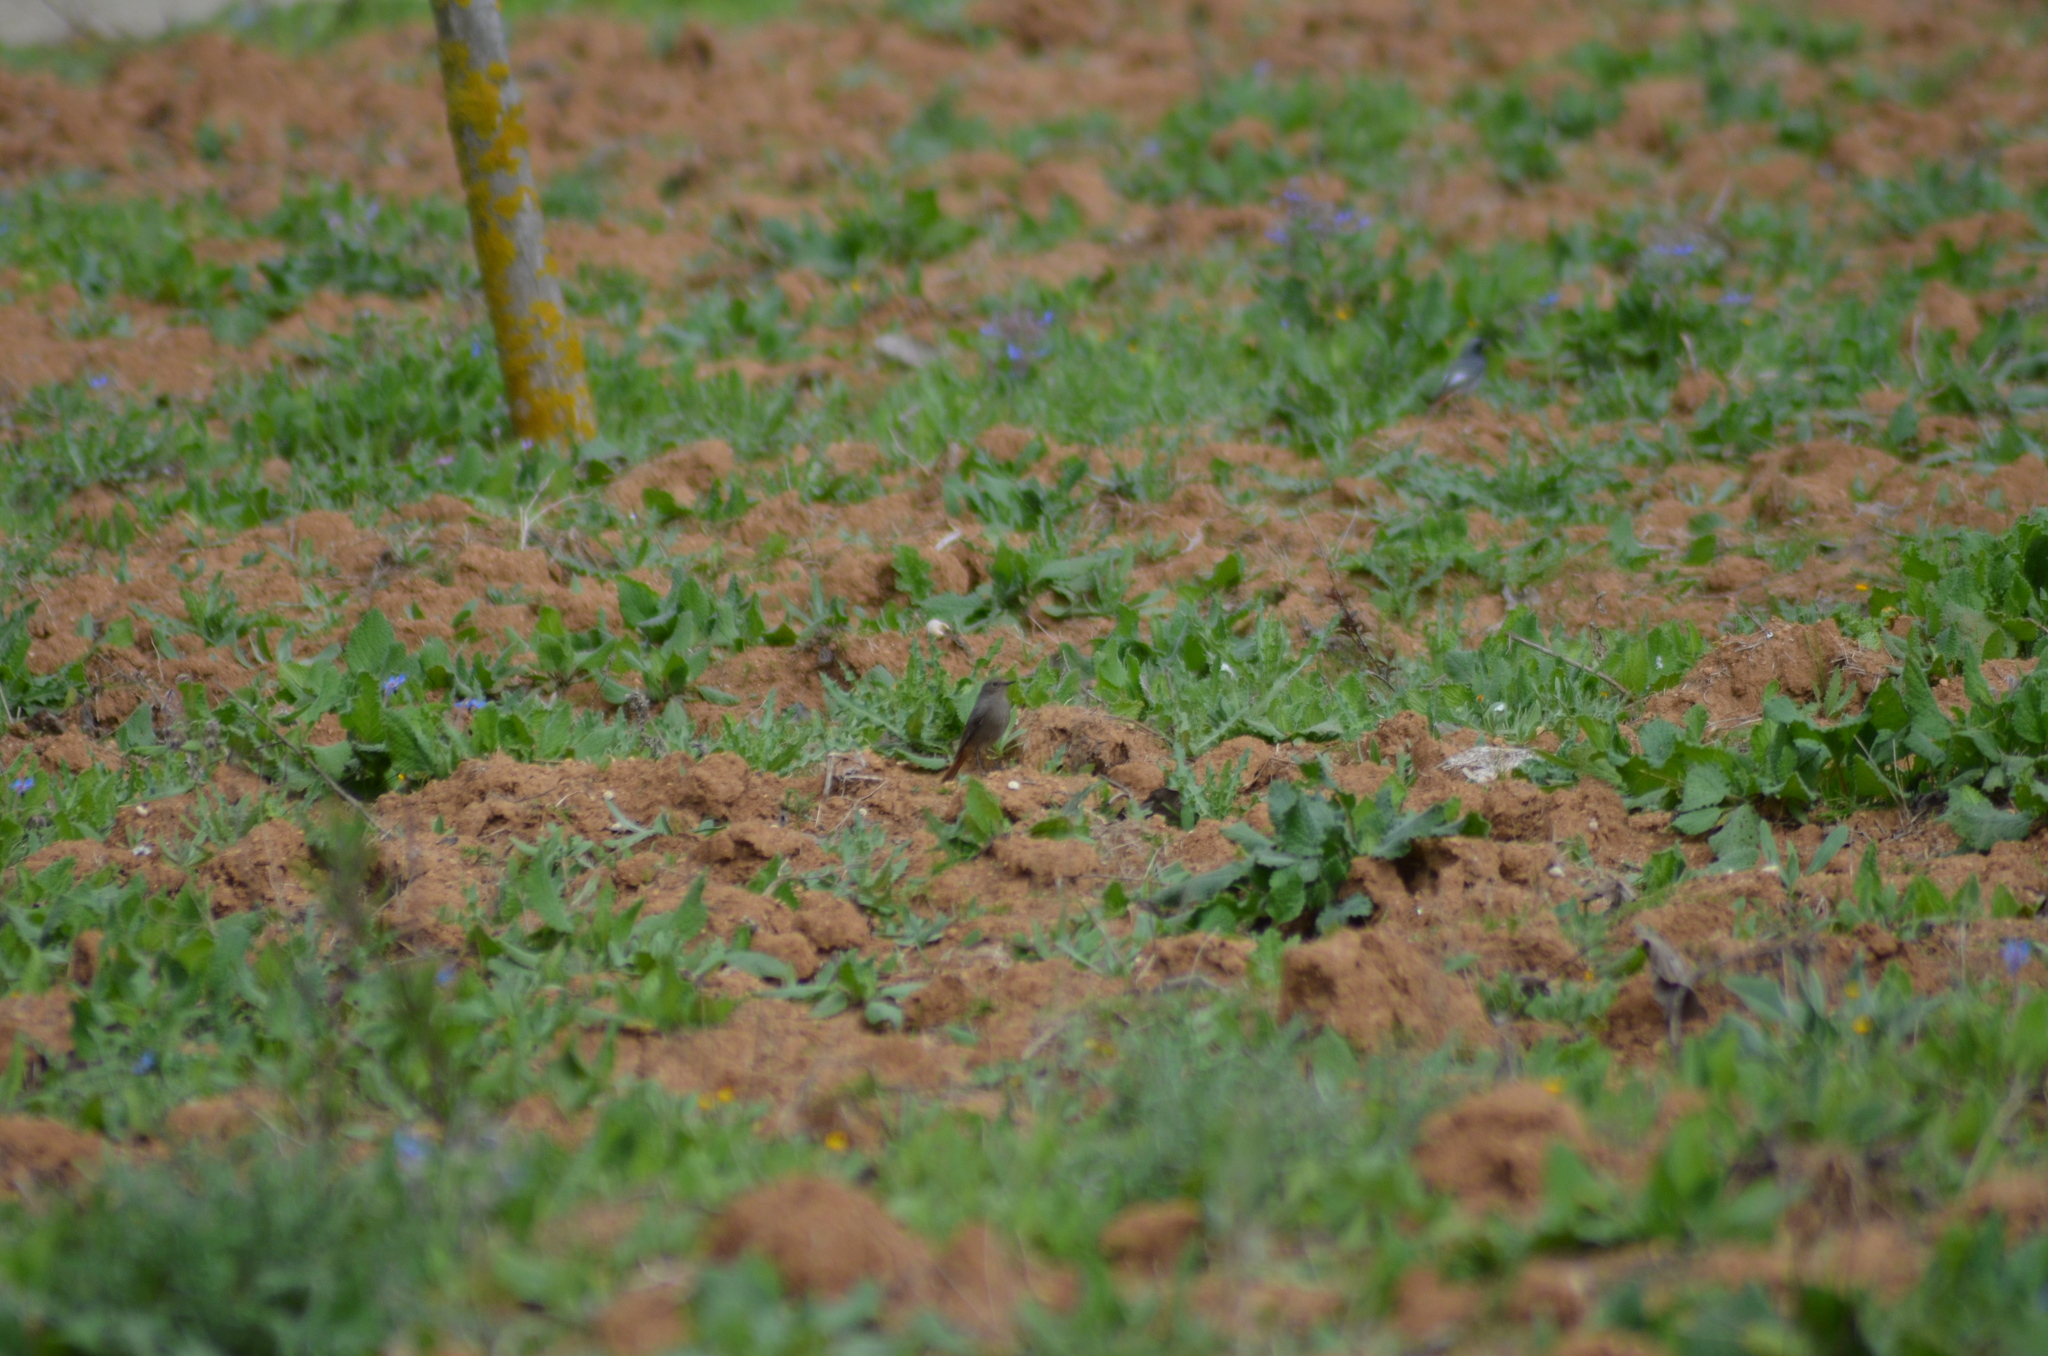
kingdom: Animalia
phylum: Chordata
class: Aves
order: Passeriformes
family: Muscicapidae
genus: Phoenicurus
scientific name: Phoenicurus ochruros
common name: Black redstart
